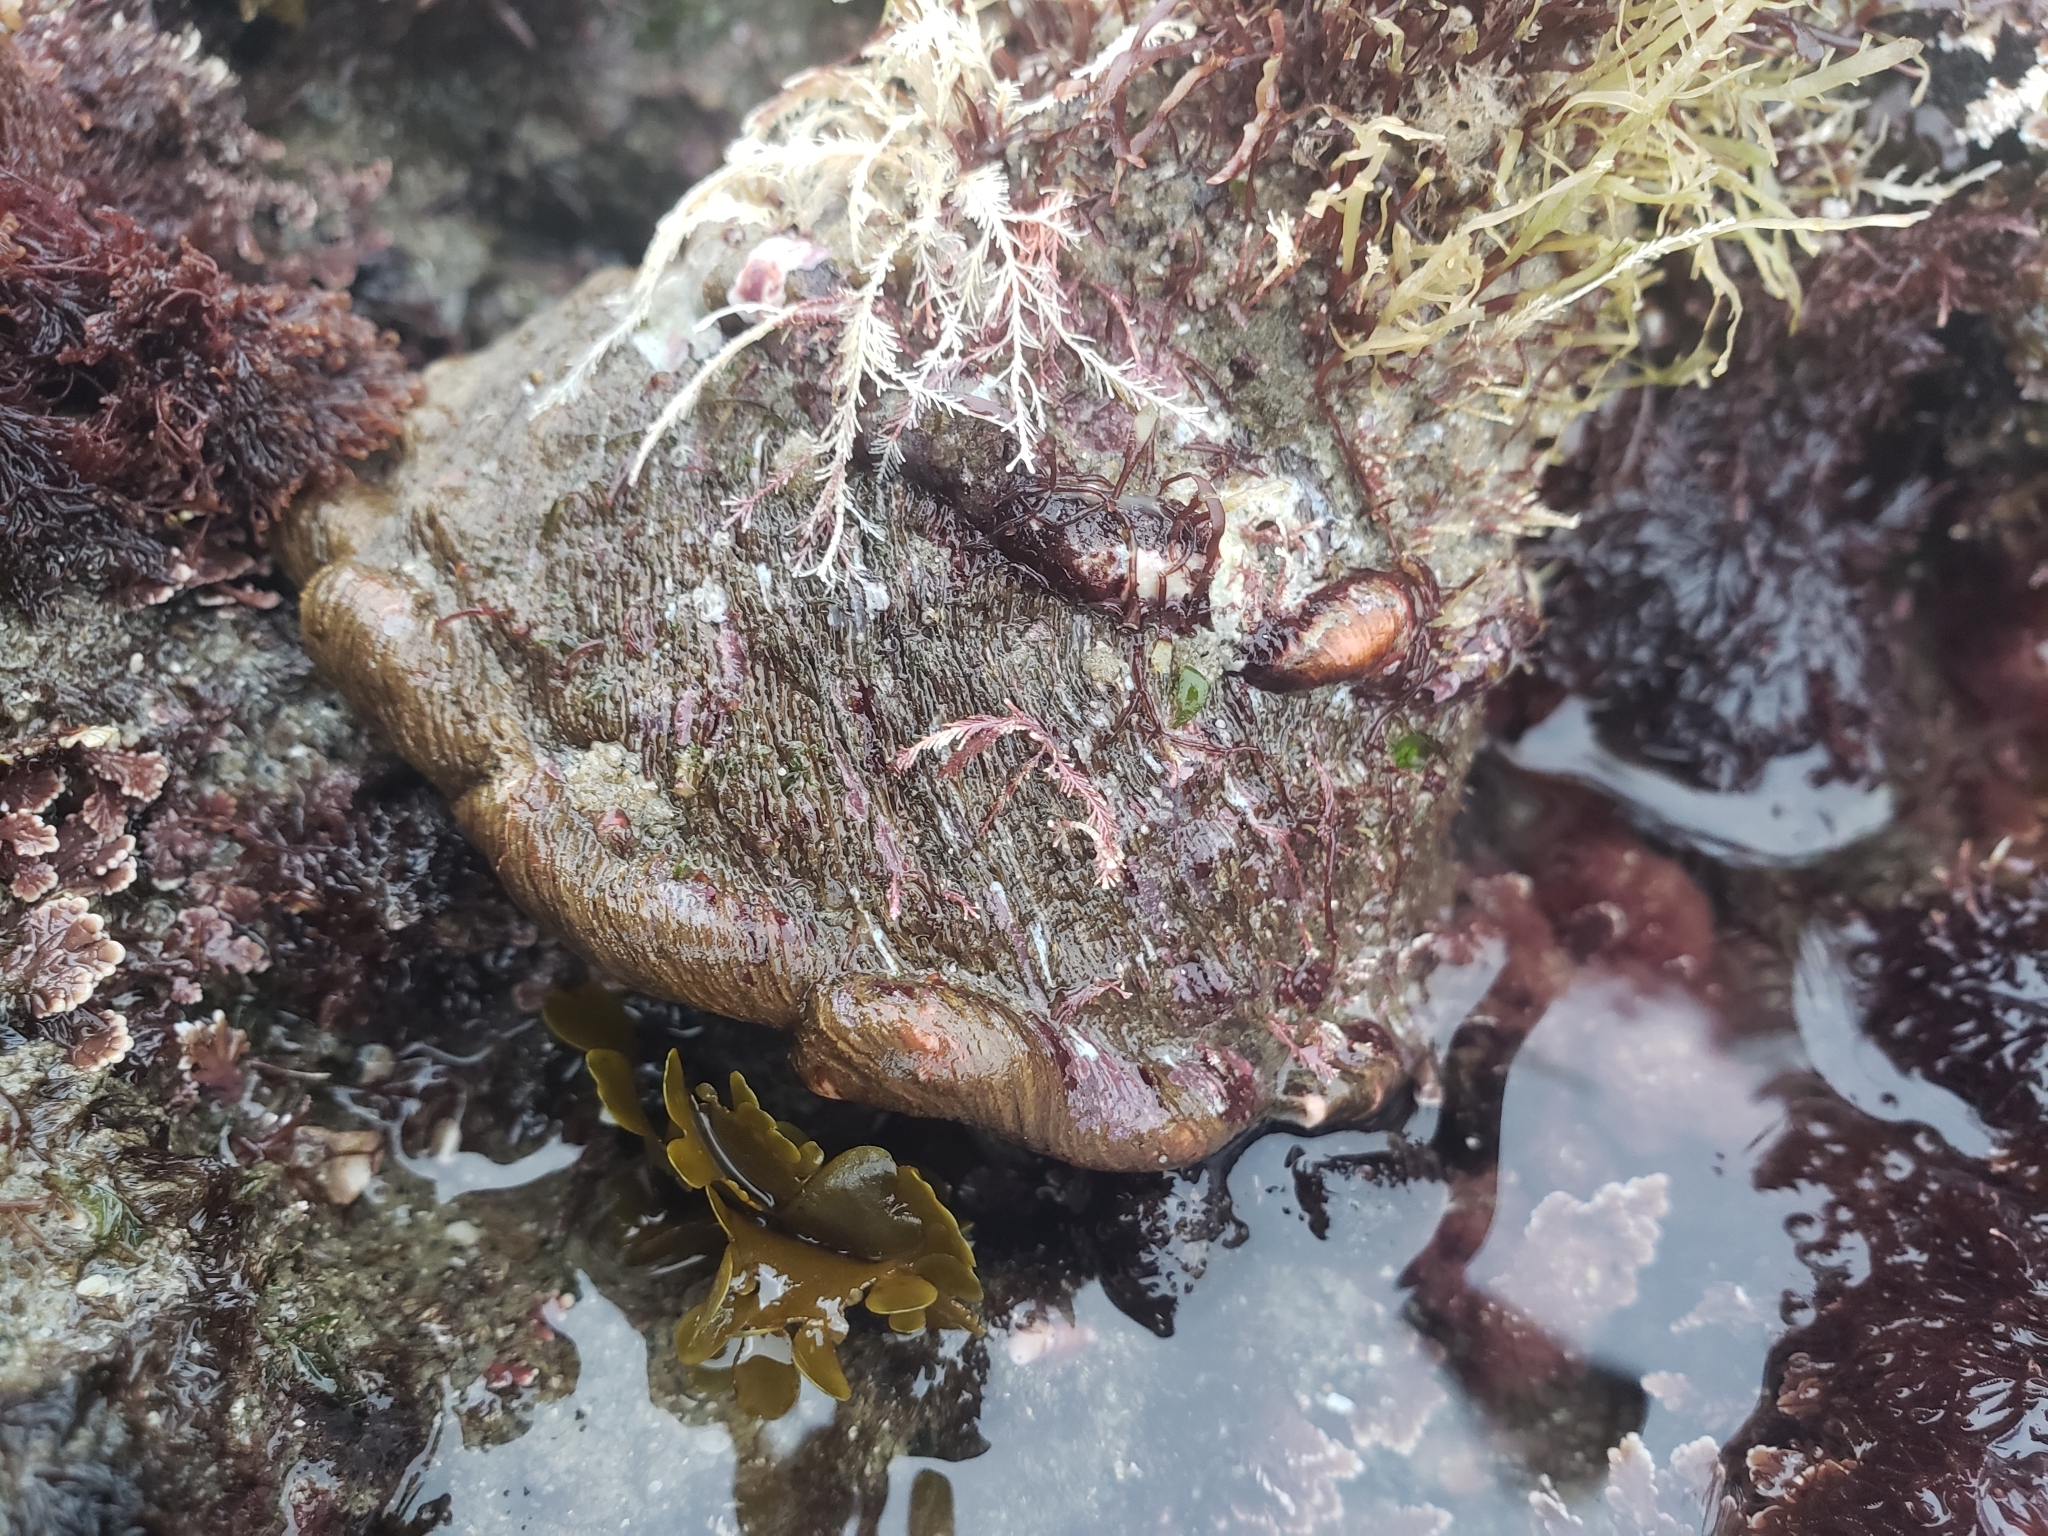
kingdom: Animalia
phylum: Mollusca
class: Gastropoda
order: Trochida
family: Turbinidae
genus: Megastraea
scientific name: Megastraea undosa
